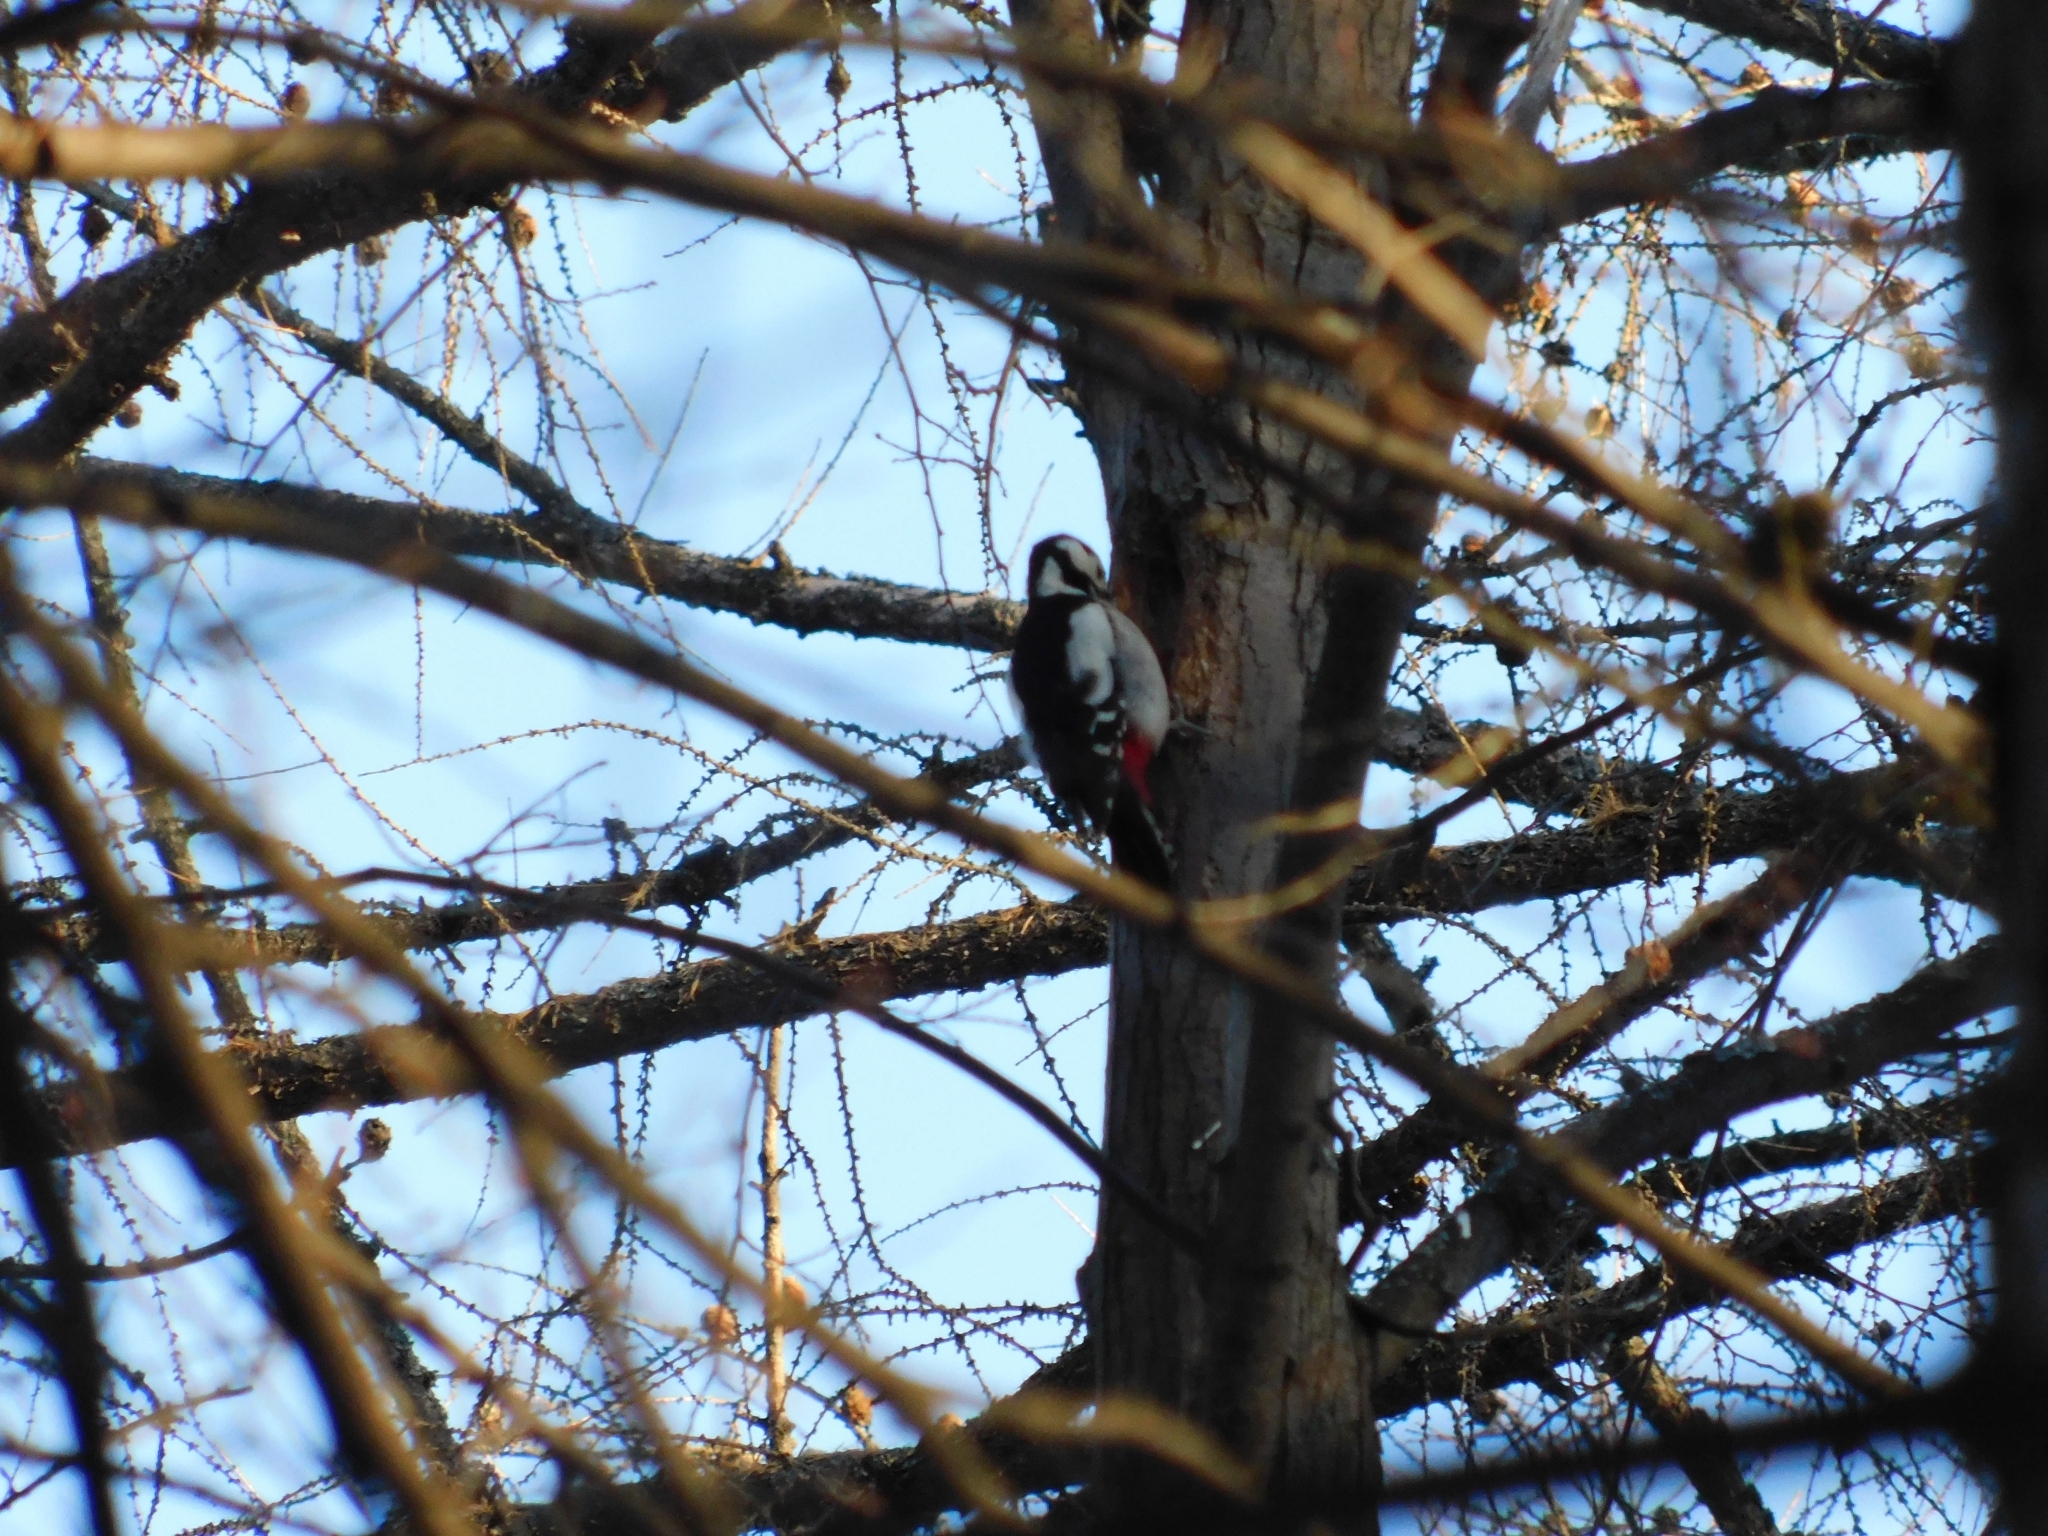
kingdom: Animalia
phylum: Chordata
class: Aves
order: Piciformes
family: Picidae
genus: Dendrocopos
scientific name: Dendrocopos major
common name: Great spotted woodpecker
